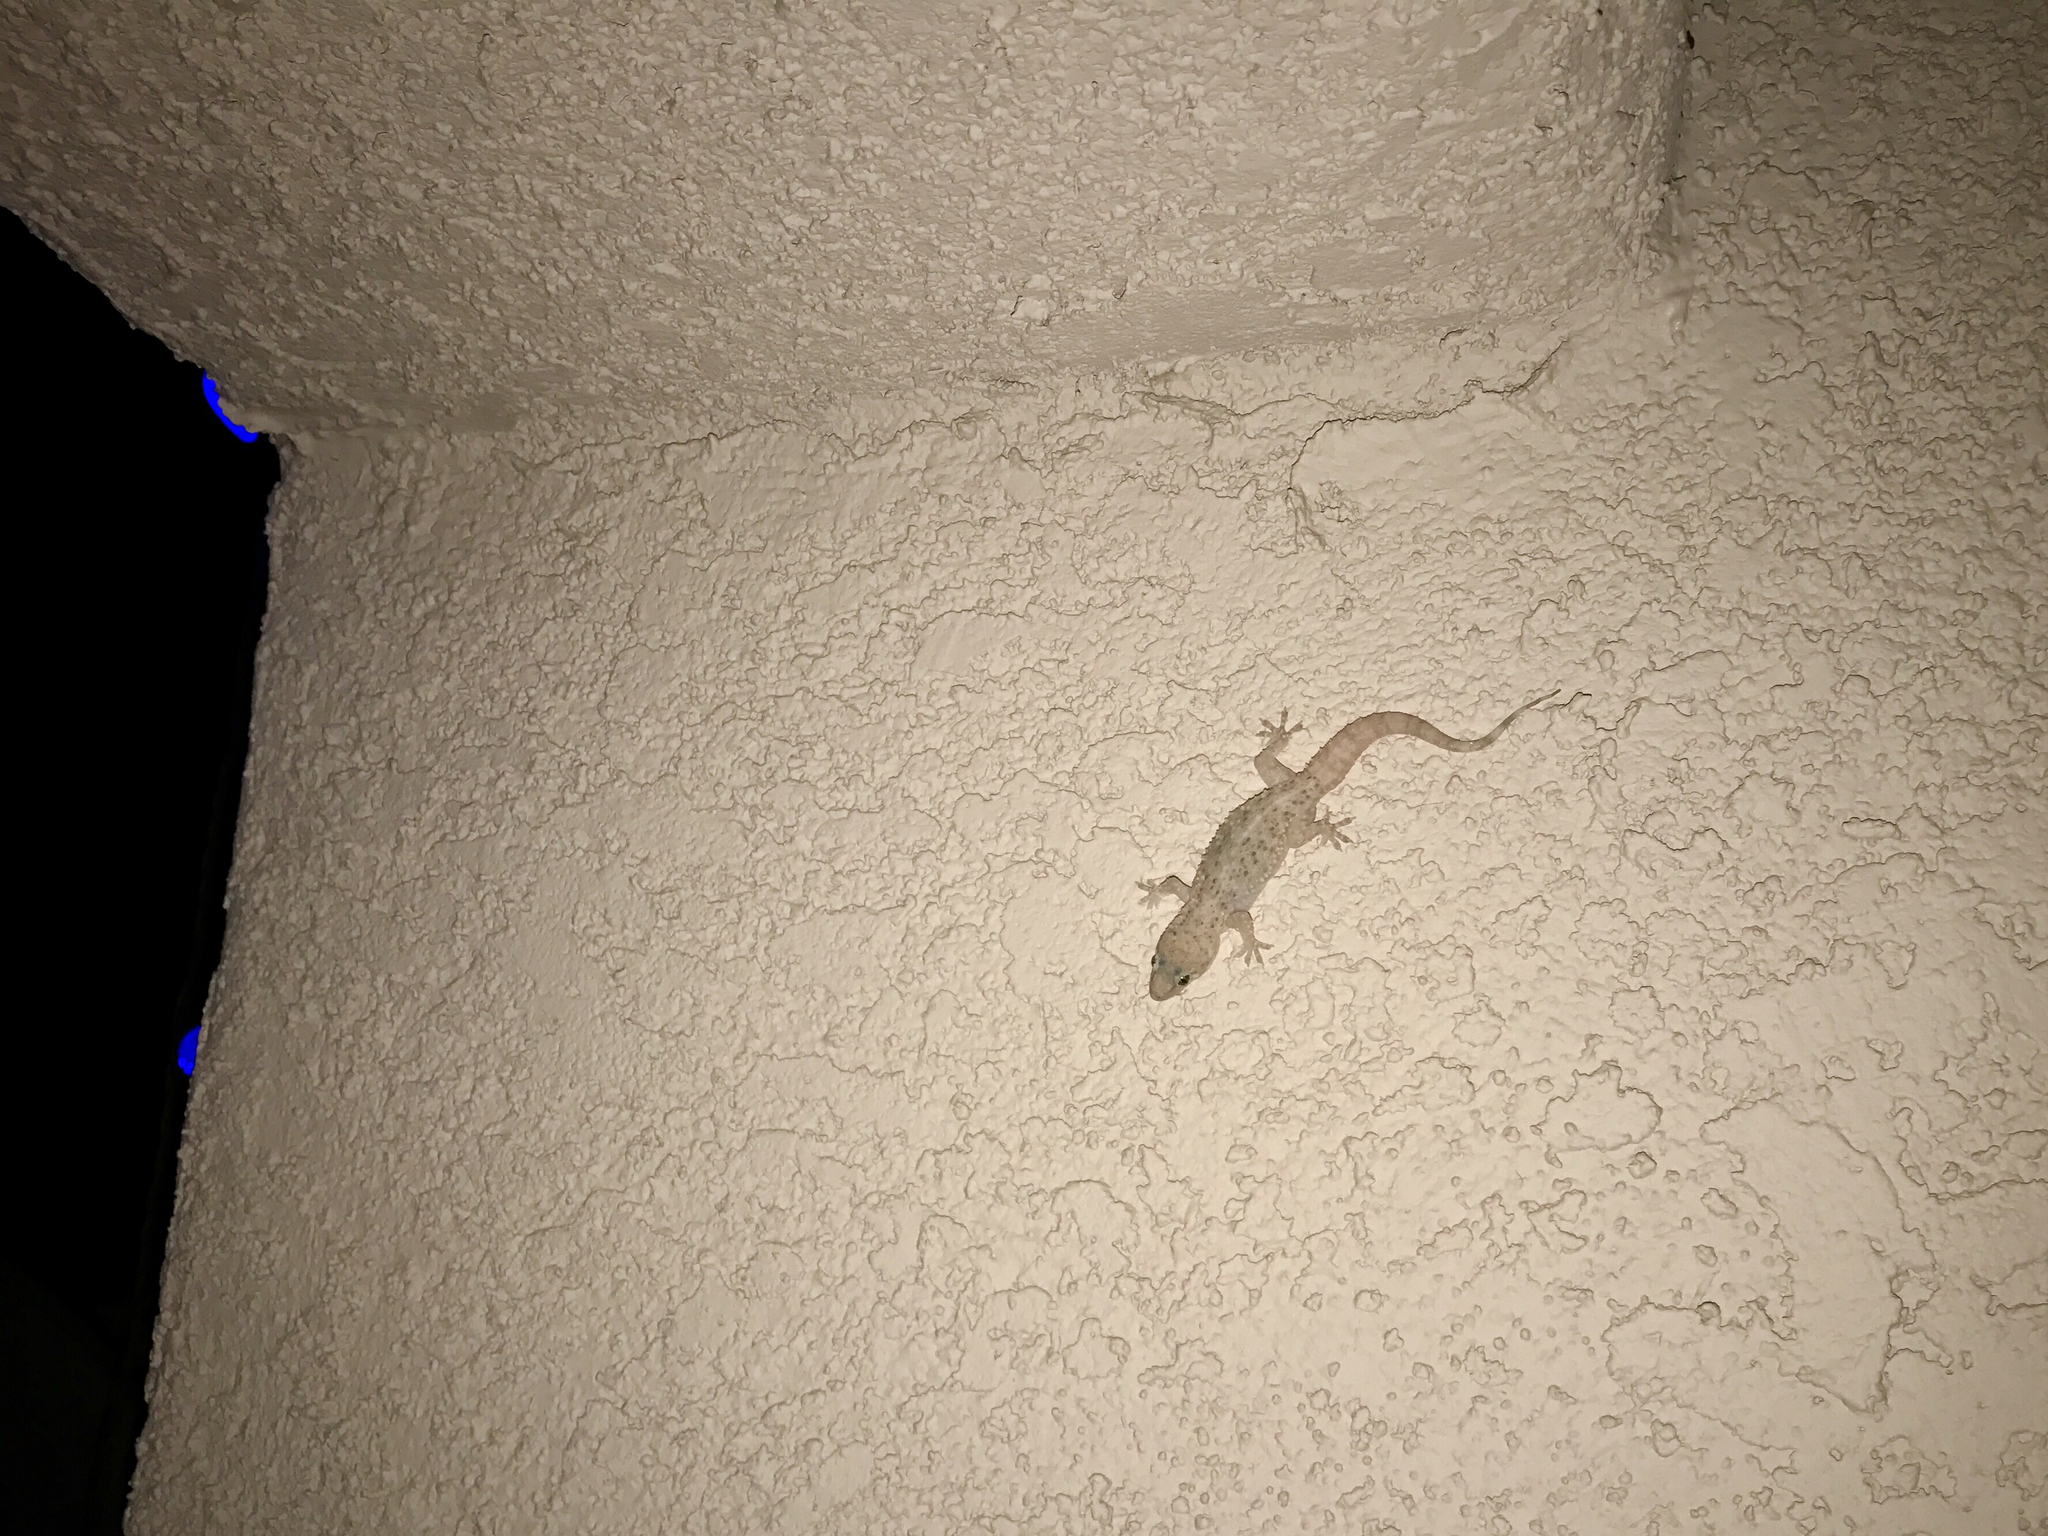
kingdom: Animalia
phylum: Chordata
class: Squamata
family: Gekkonidae
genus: Hemidactylus
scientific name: Hemidactylus turcicus
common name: Turkish gecko
